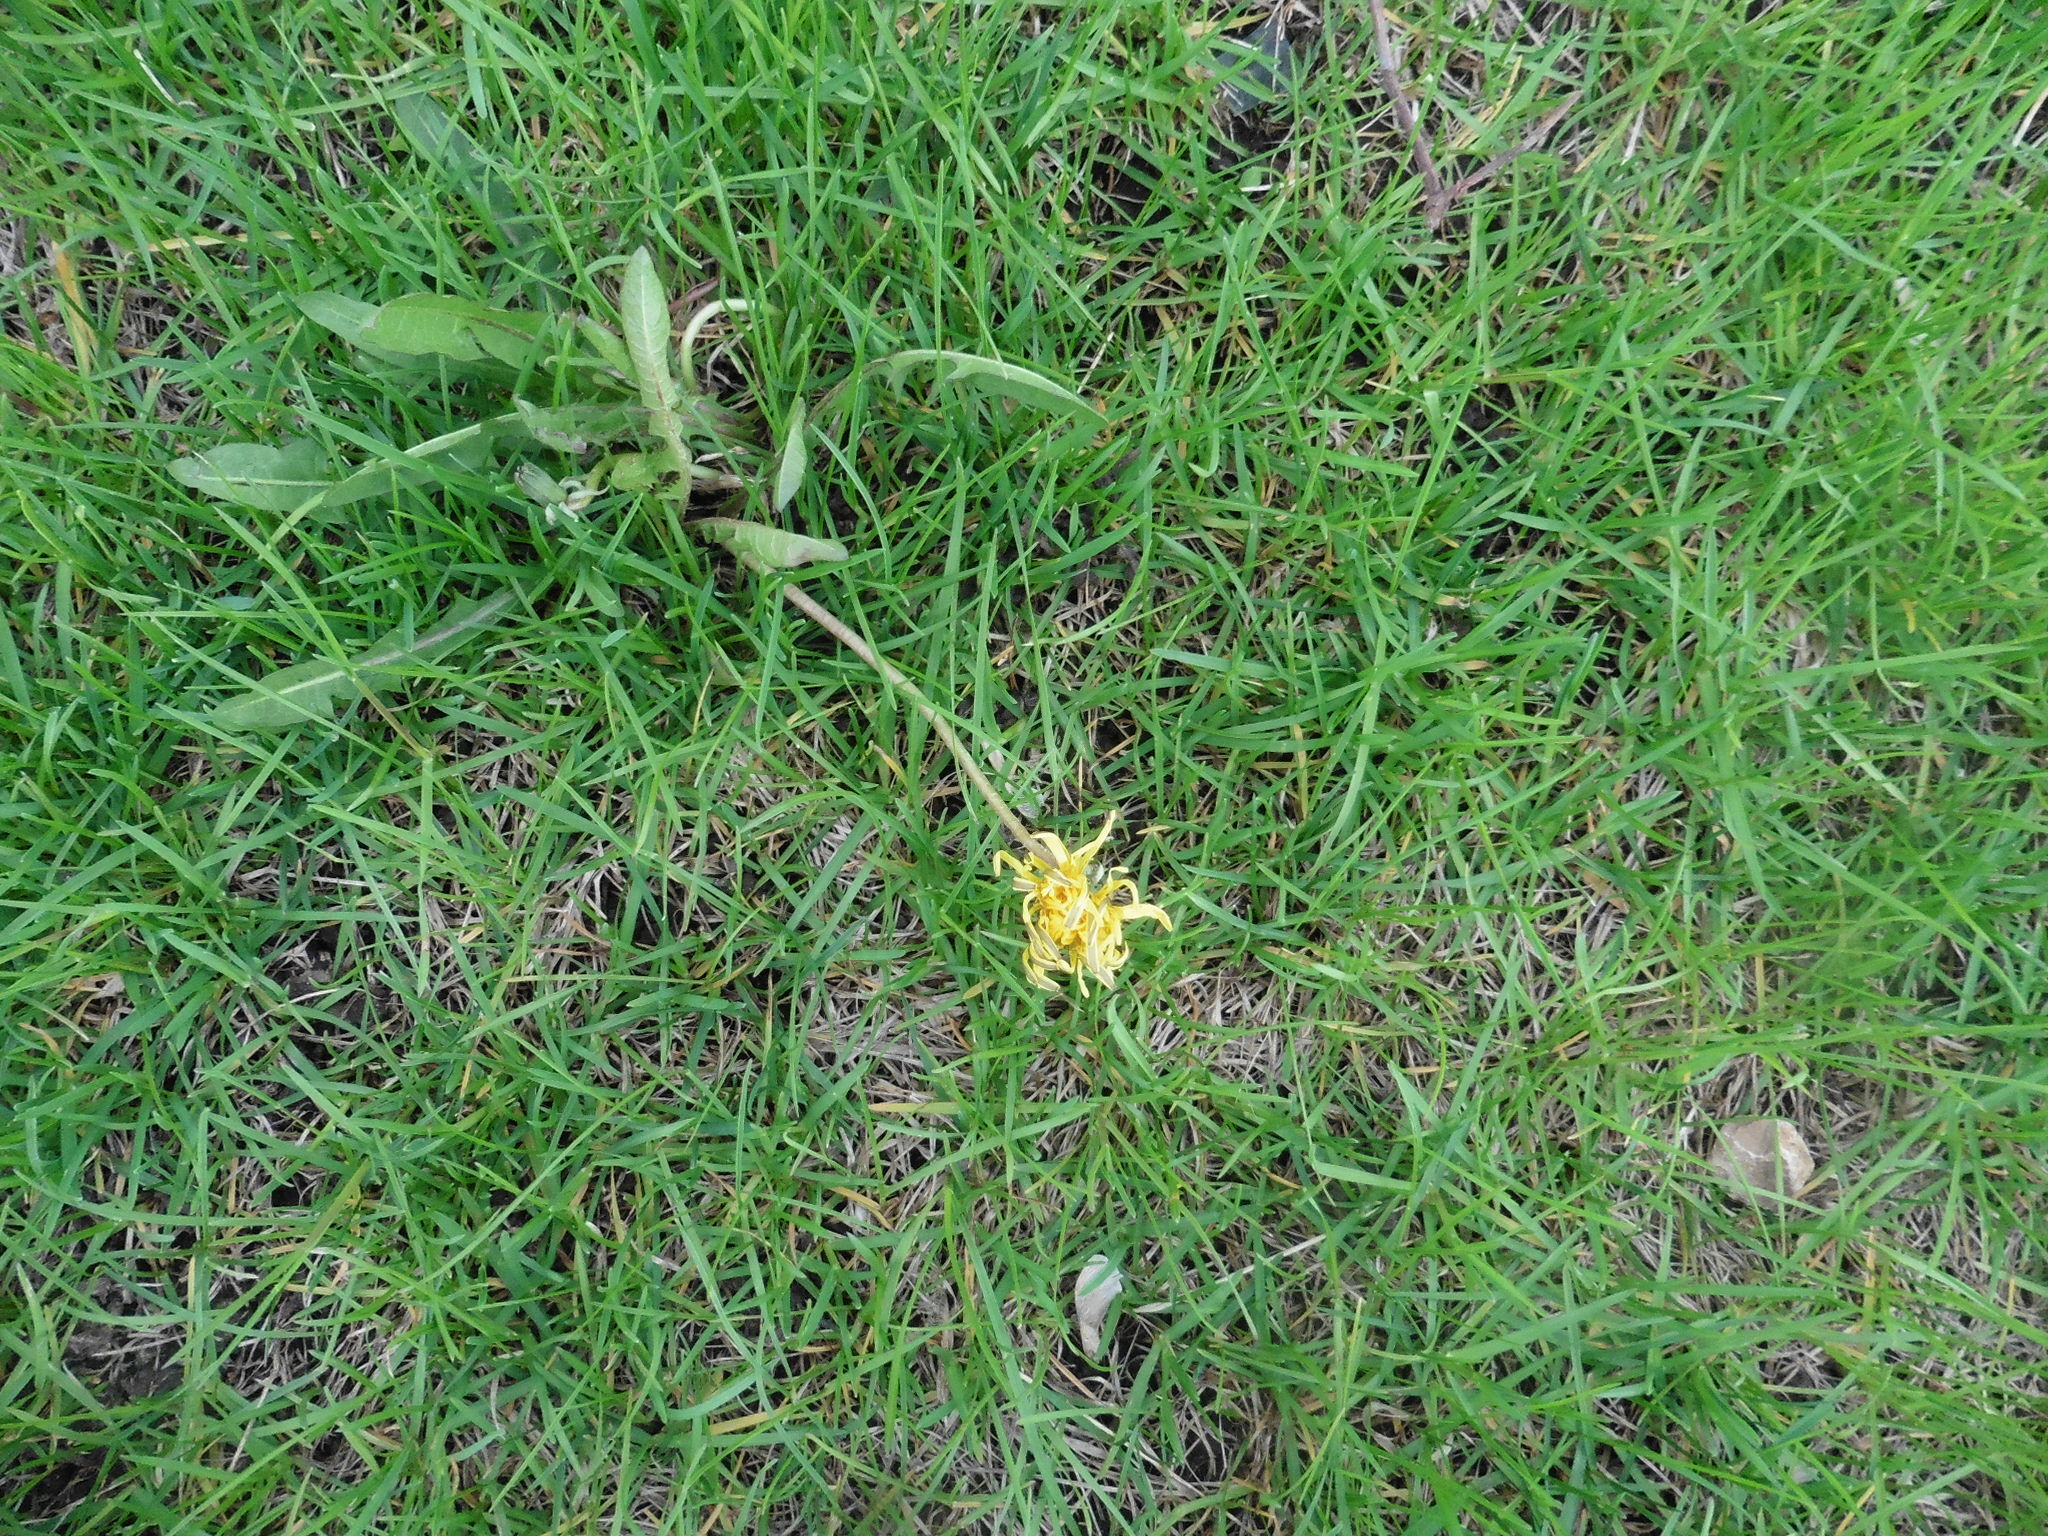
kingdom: Plantae
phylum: Tracheophyta
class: Magnoliopsida
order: Asterales
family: Asteraceae
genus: Taraxacum
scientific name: Taraxacum officinale
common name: Common dandelion
